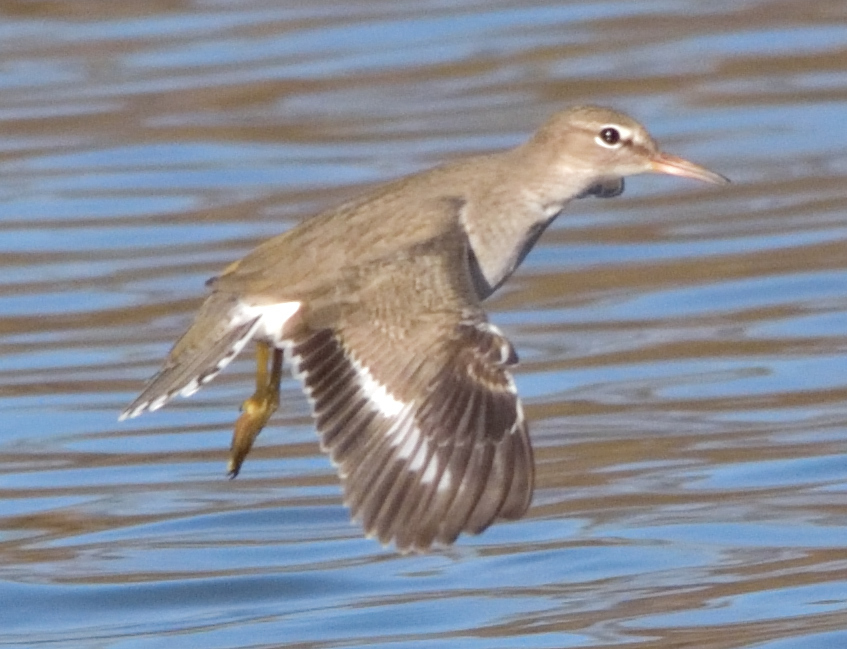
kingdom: Animalia
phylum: Chordata
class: Aves
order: Charadriiformes
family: Scolopacidae
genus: Actitis
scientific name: Actitis macularius
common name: Spotted sandpiper
